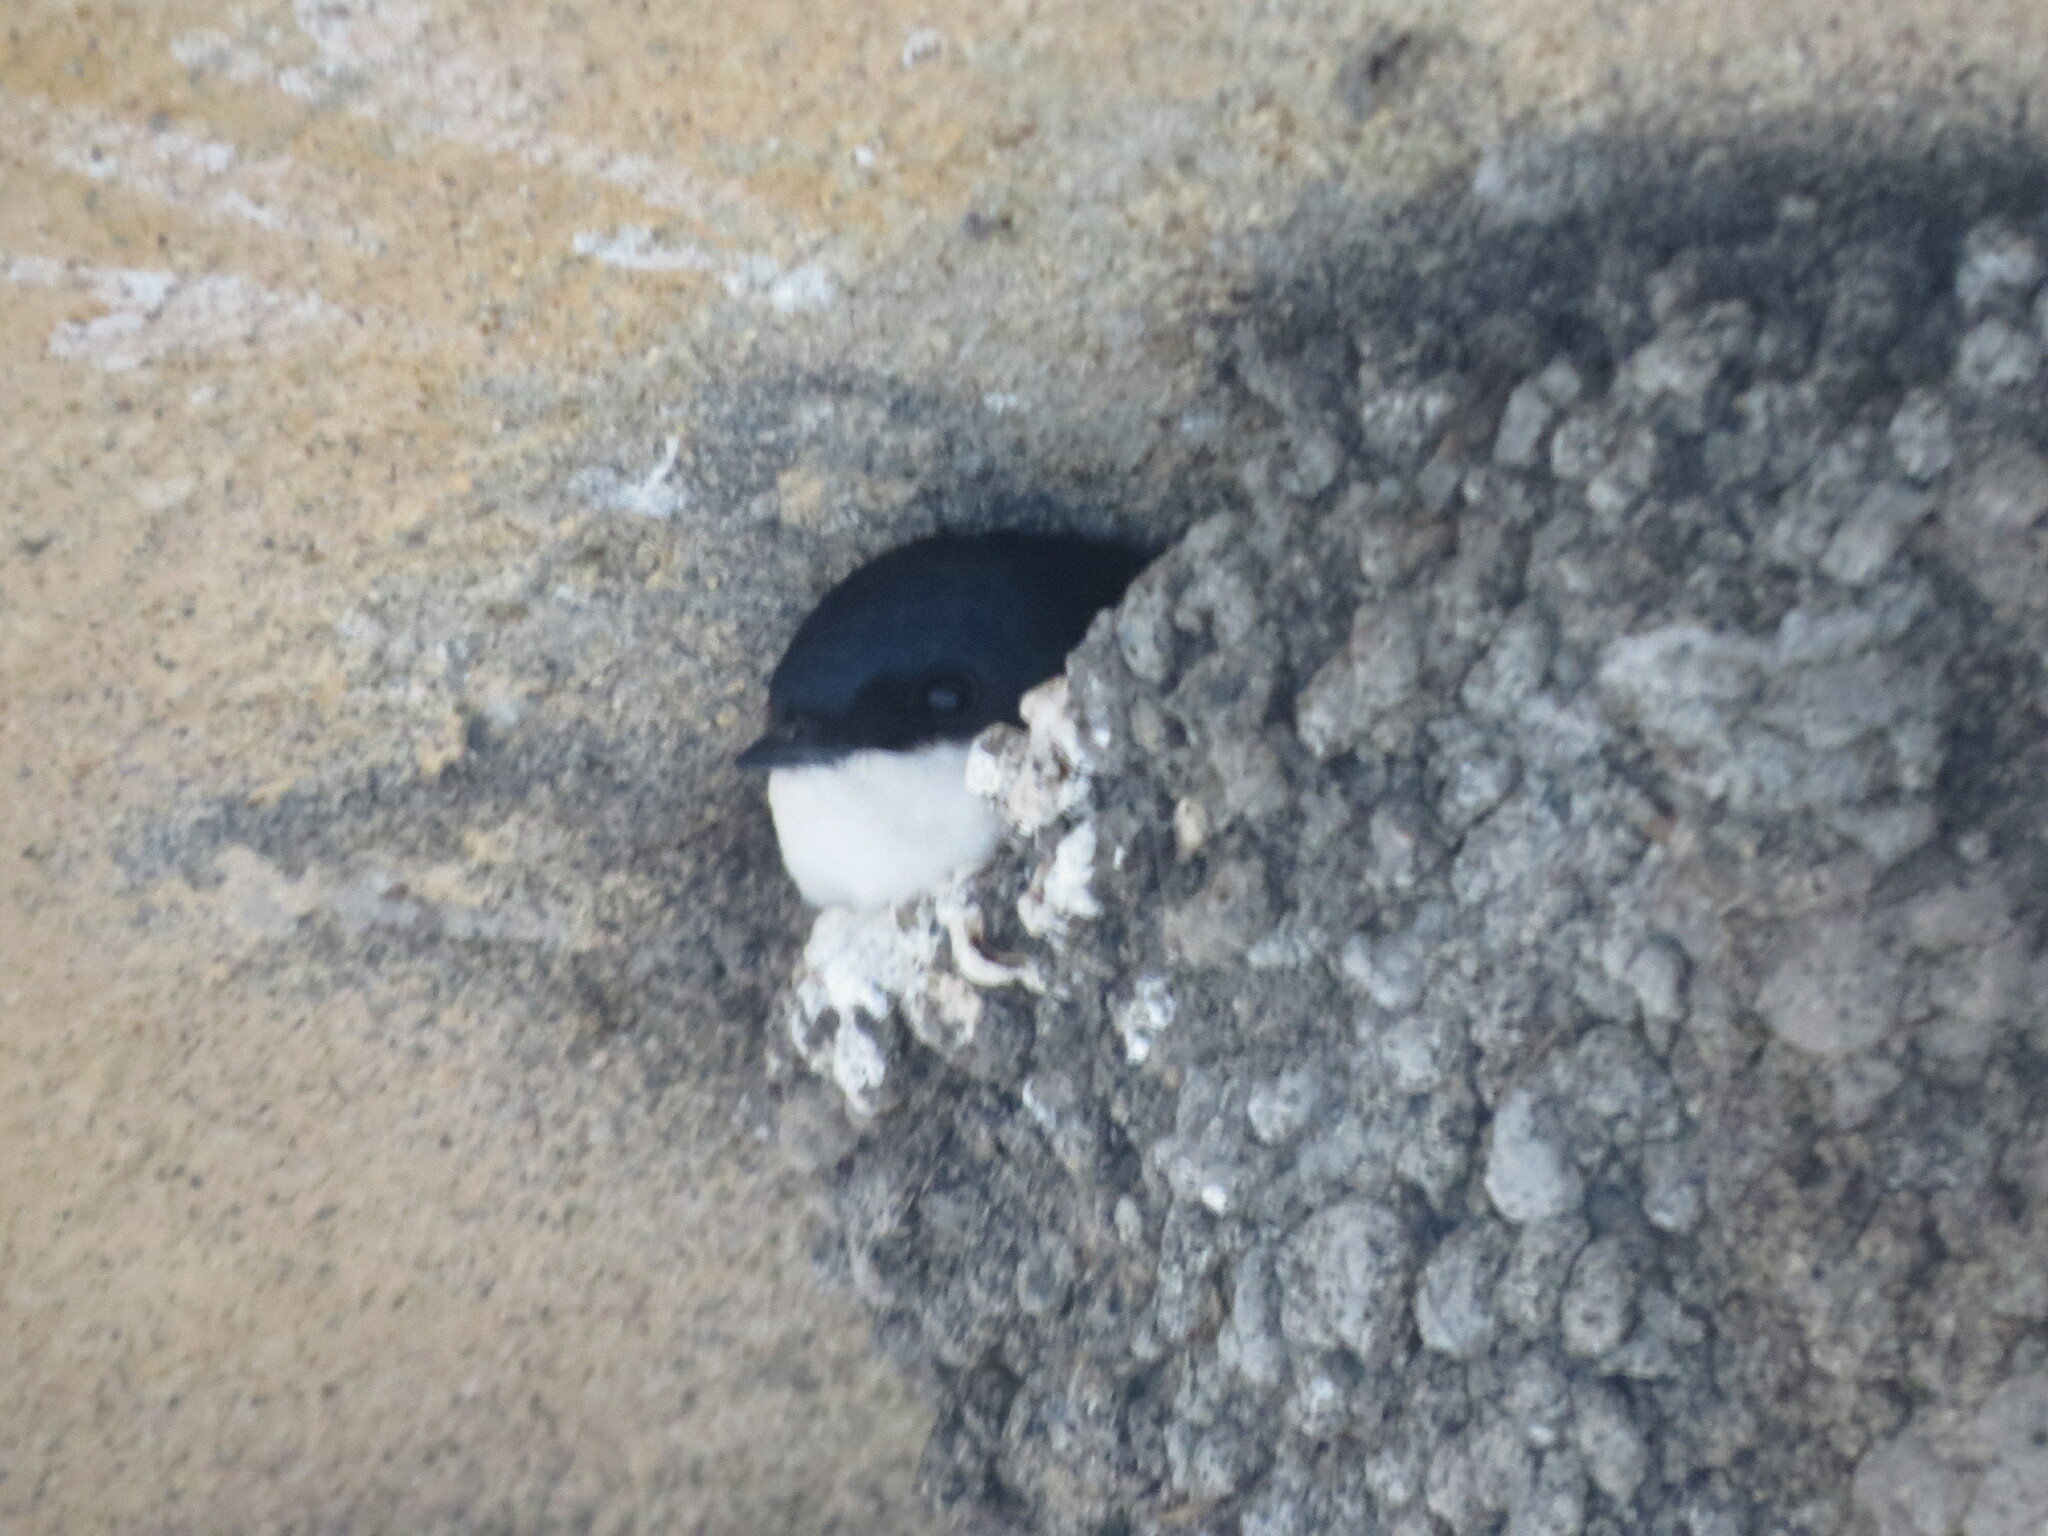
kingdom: Animalia
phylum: Chordata
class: Aves
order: Passeriformes
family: Hirundinidae
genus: Delichon
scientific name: Delichon urbicum
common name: Common house martin
